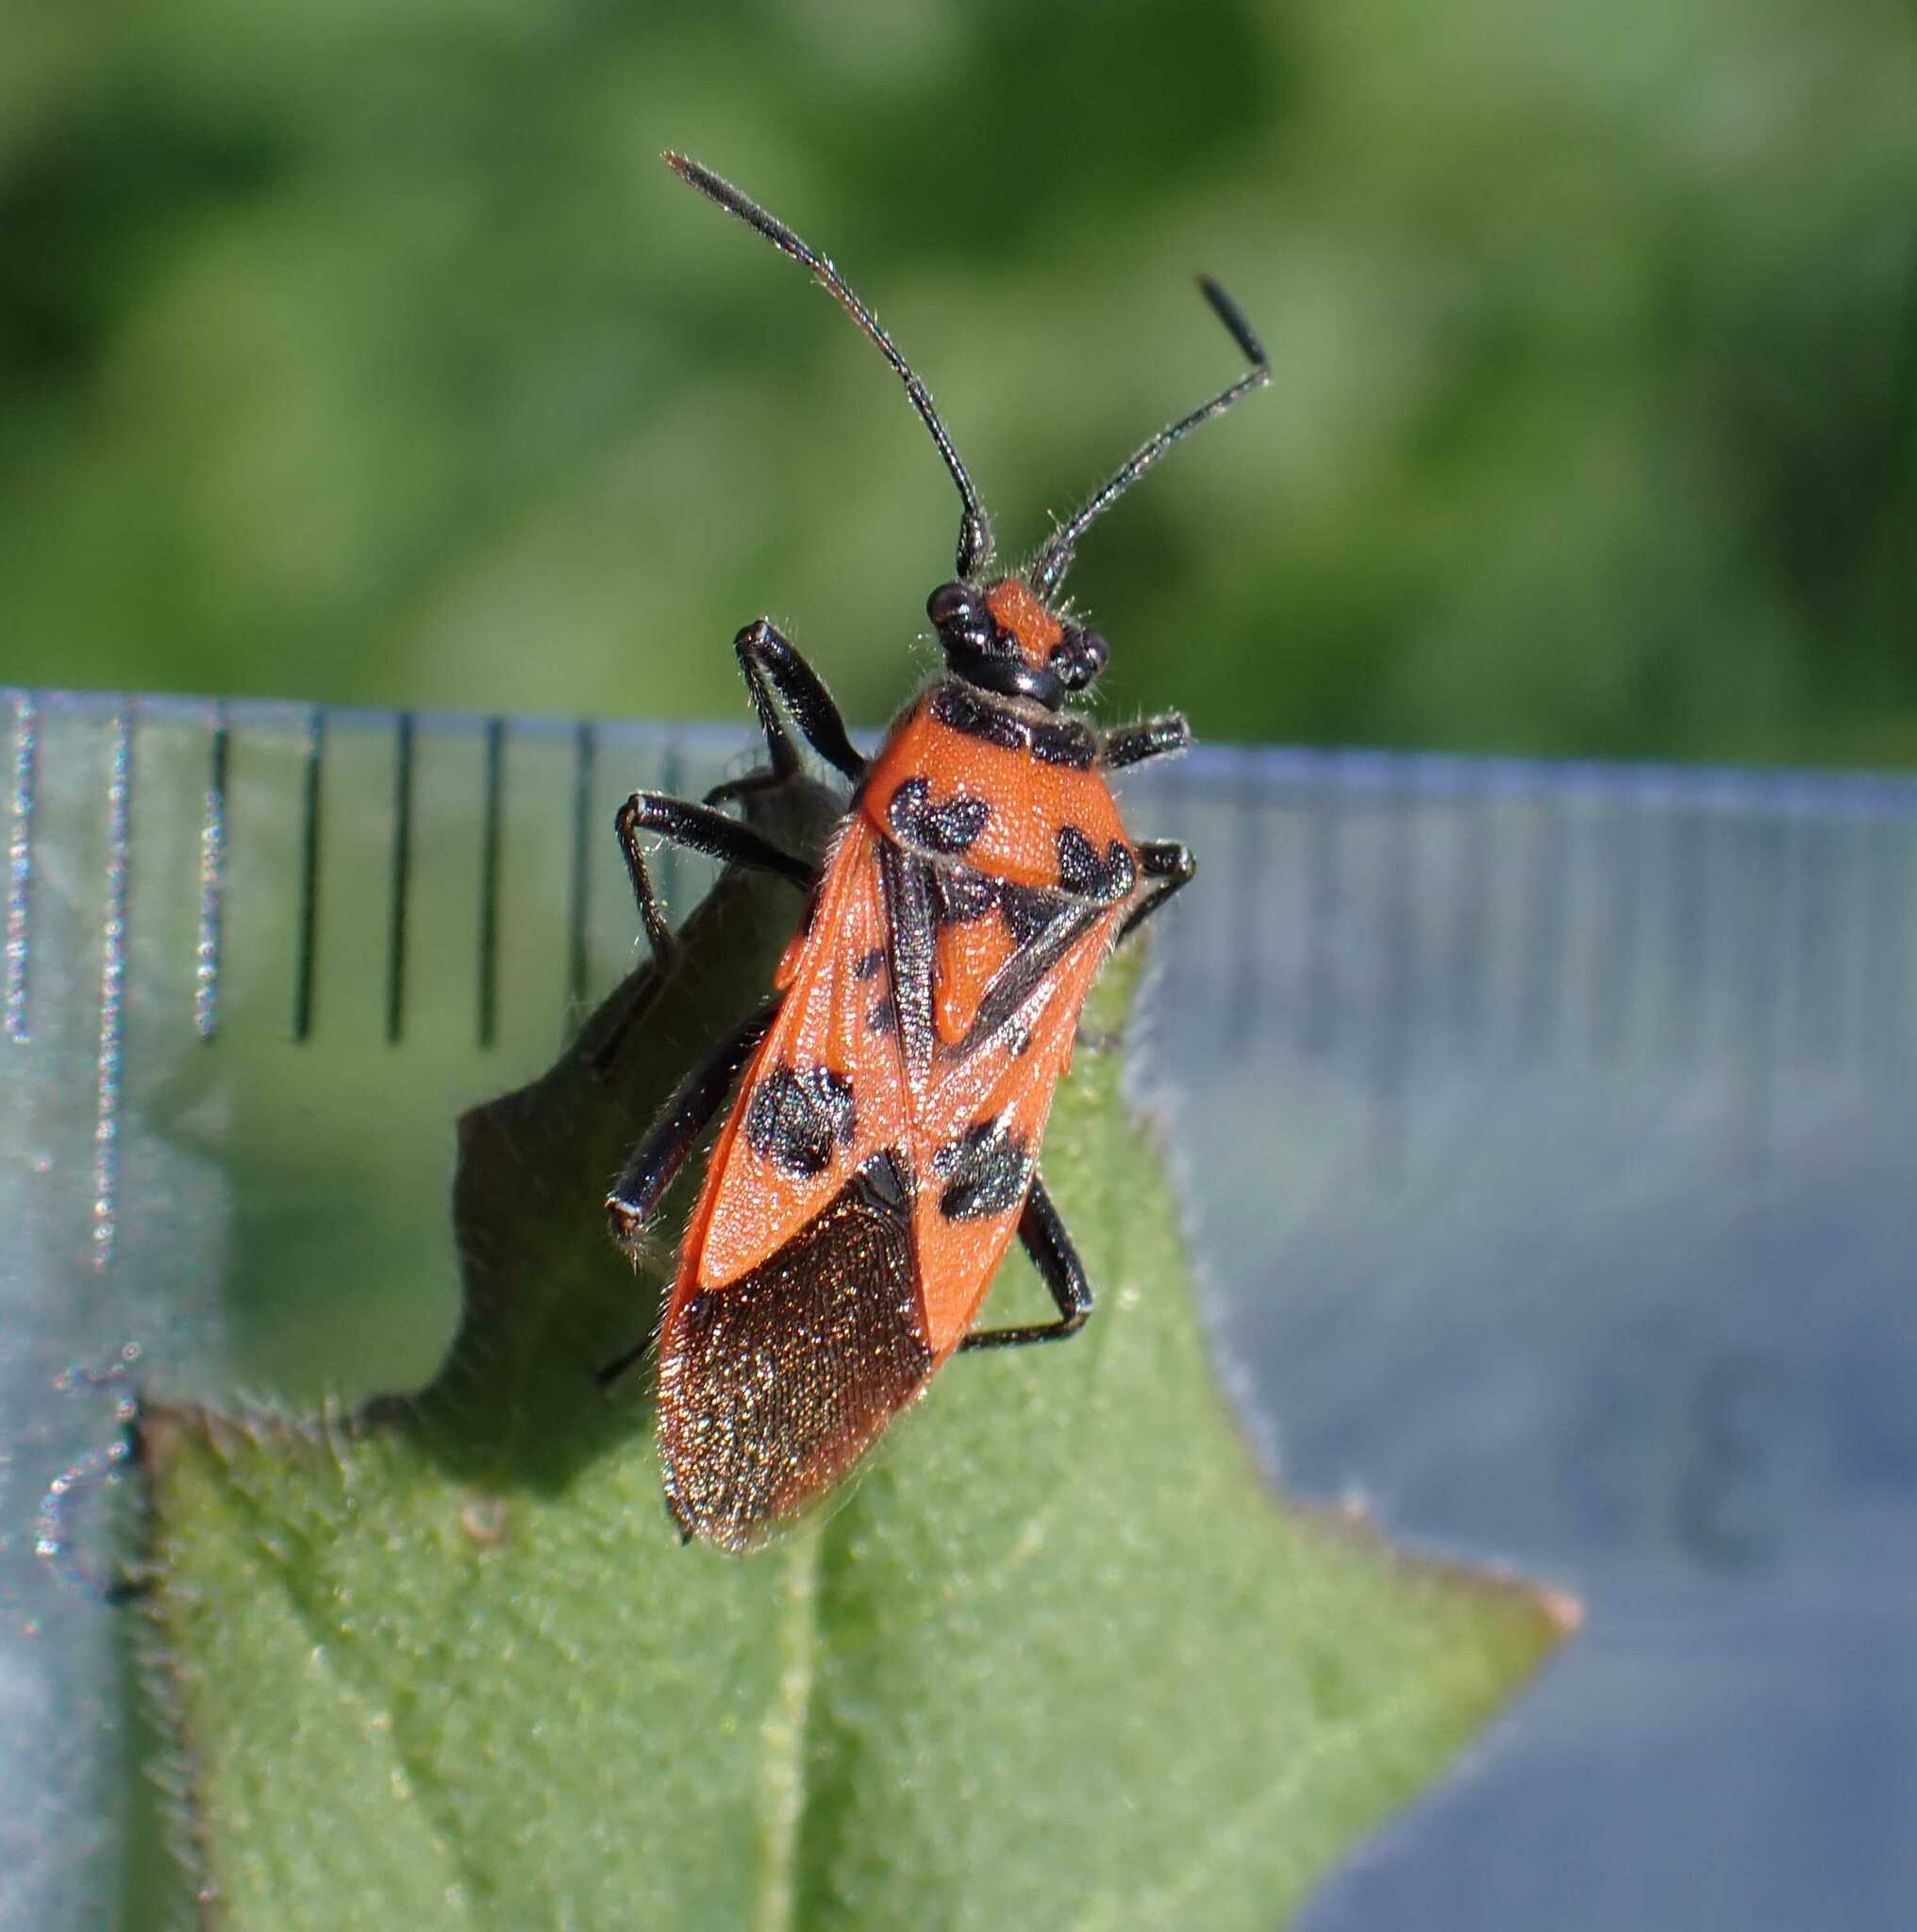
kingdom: Animalia
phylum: Arthropoda
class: Insecta
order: Hemiptera
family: Rhopalidae
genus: Corizus
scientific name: Corizus hyoscyami
